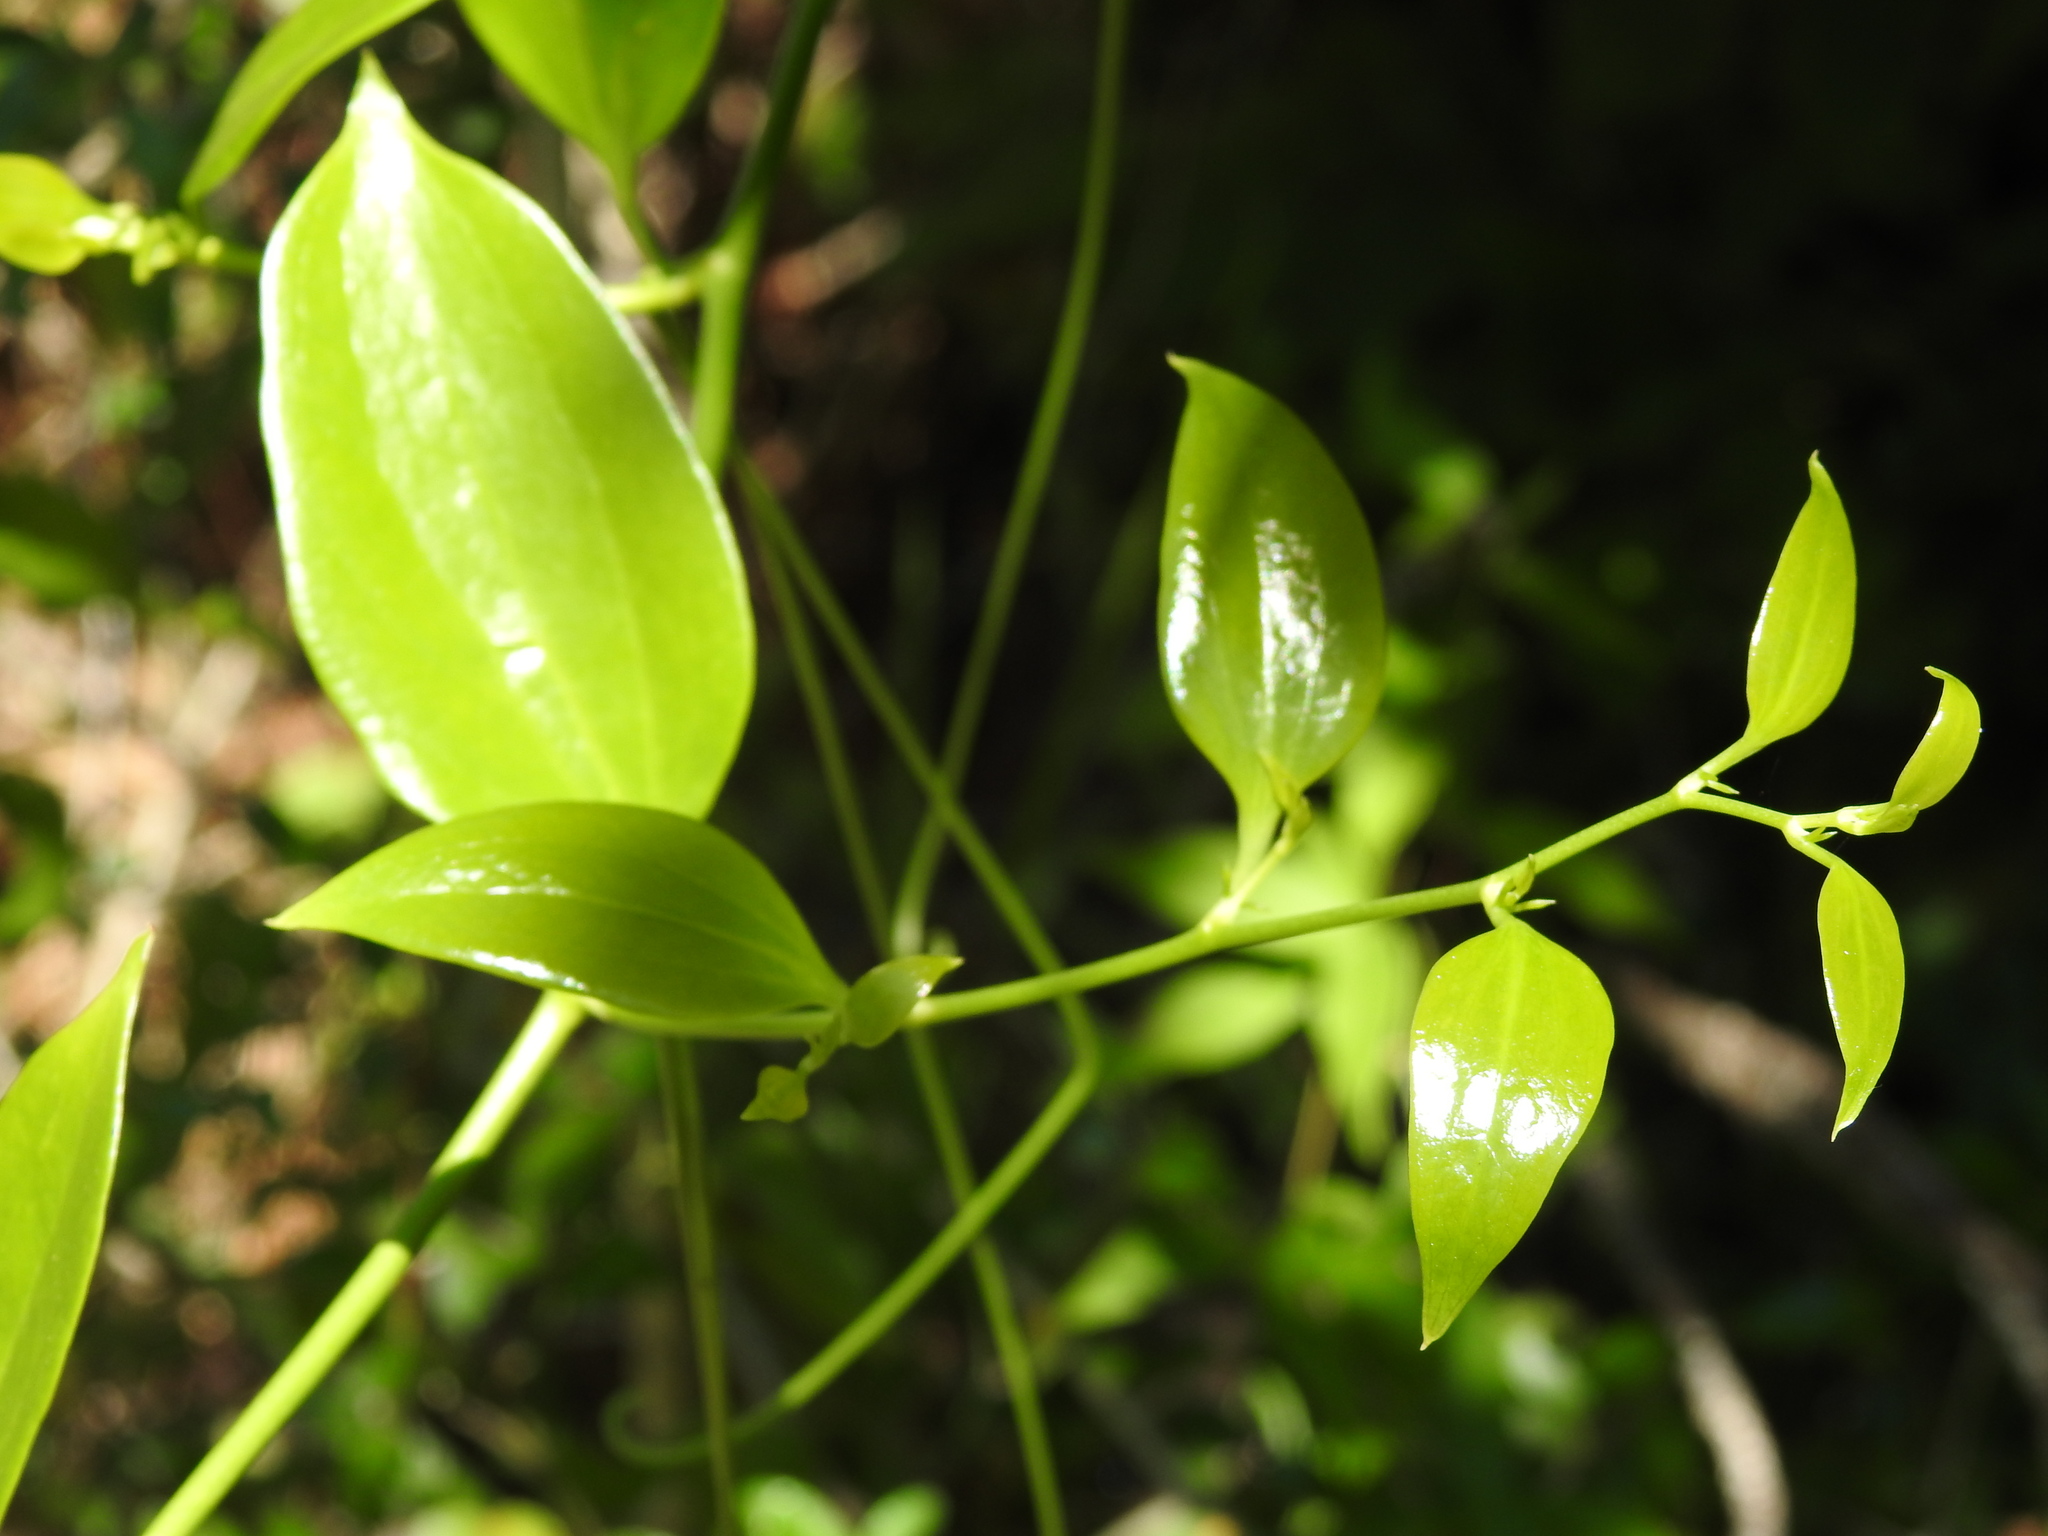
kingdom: Plantae
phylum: Tracheophyta
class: Liliopsida
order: Liliales
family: Smilacaceae
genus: Smilax
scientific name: Smilax maritima
